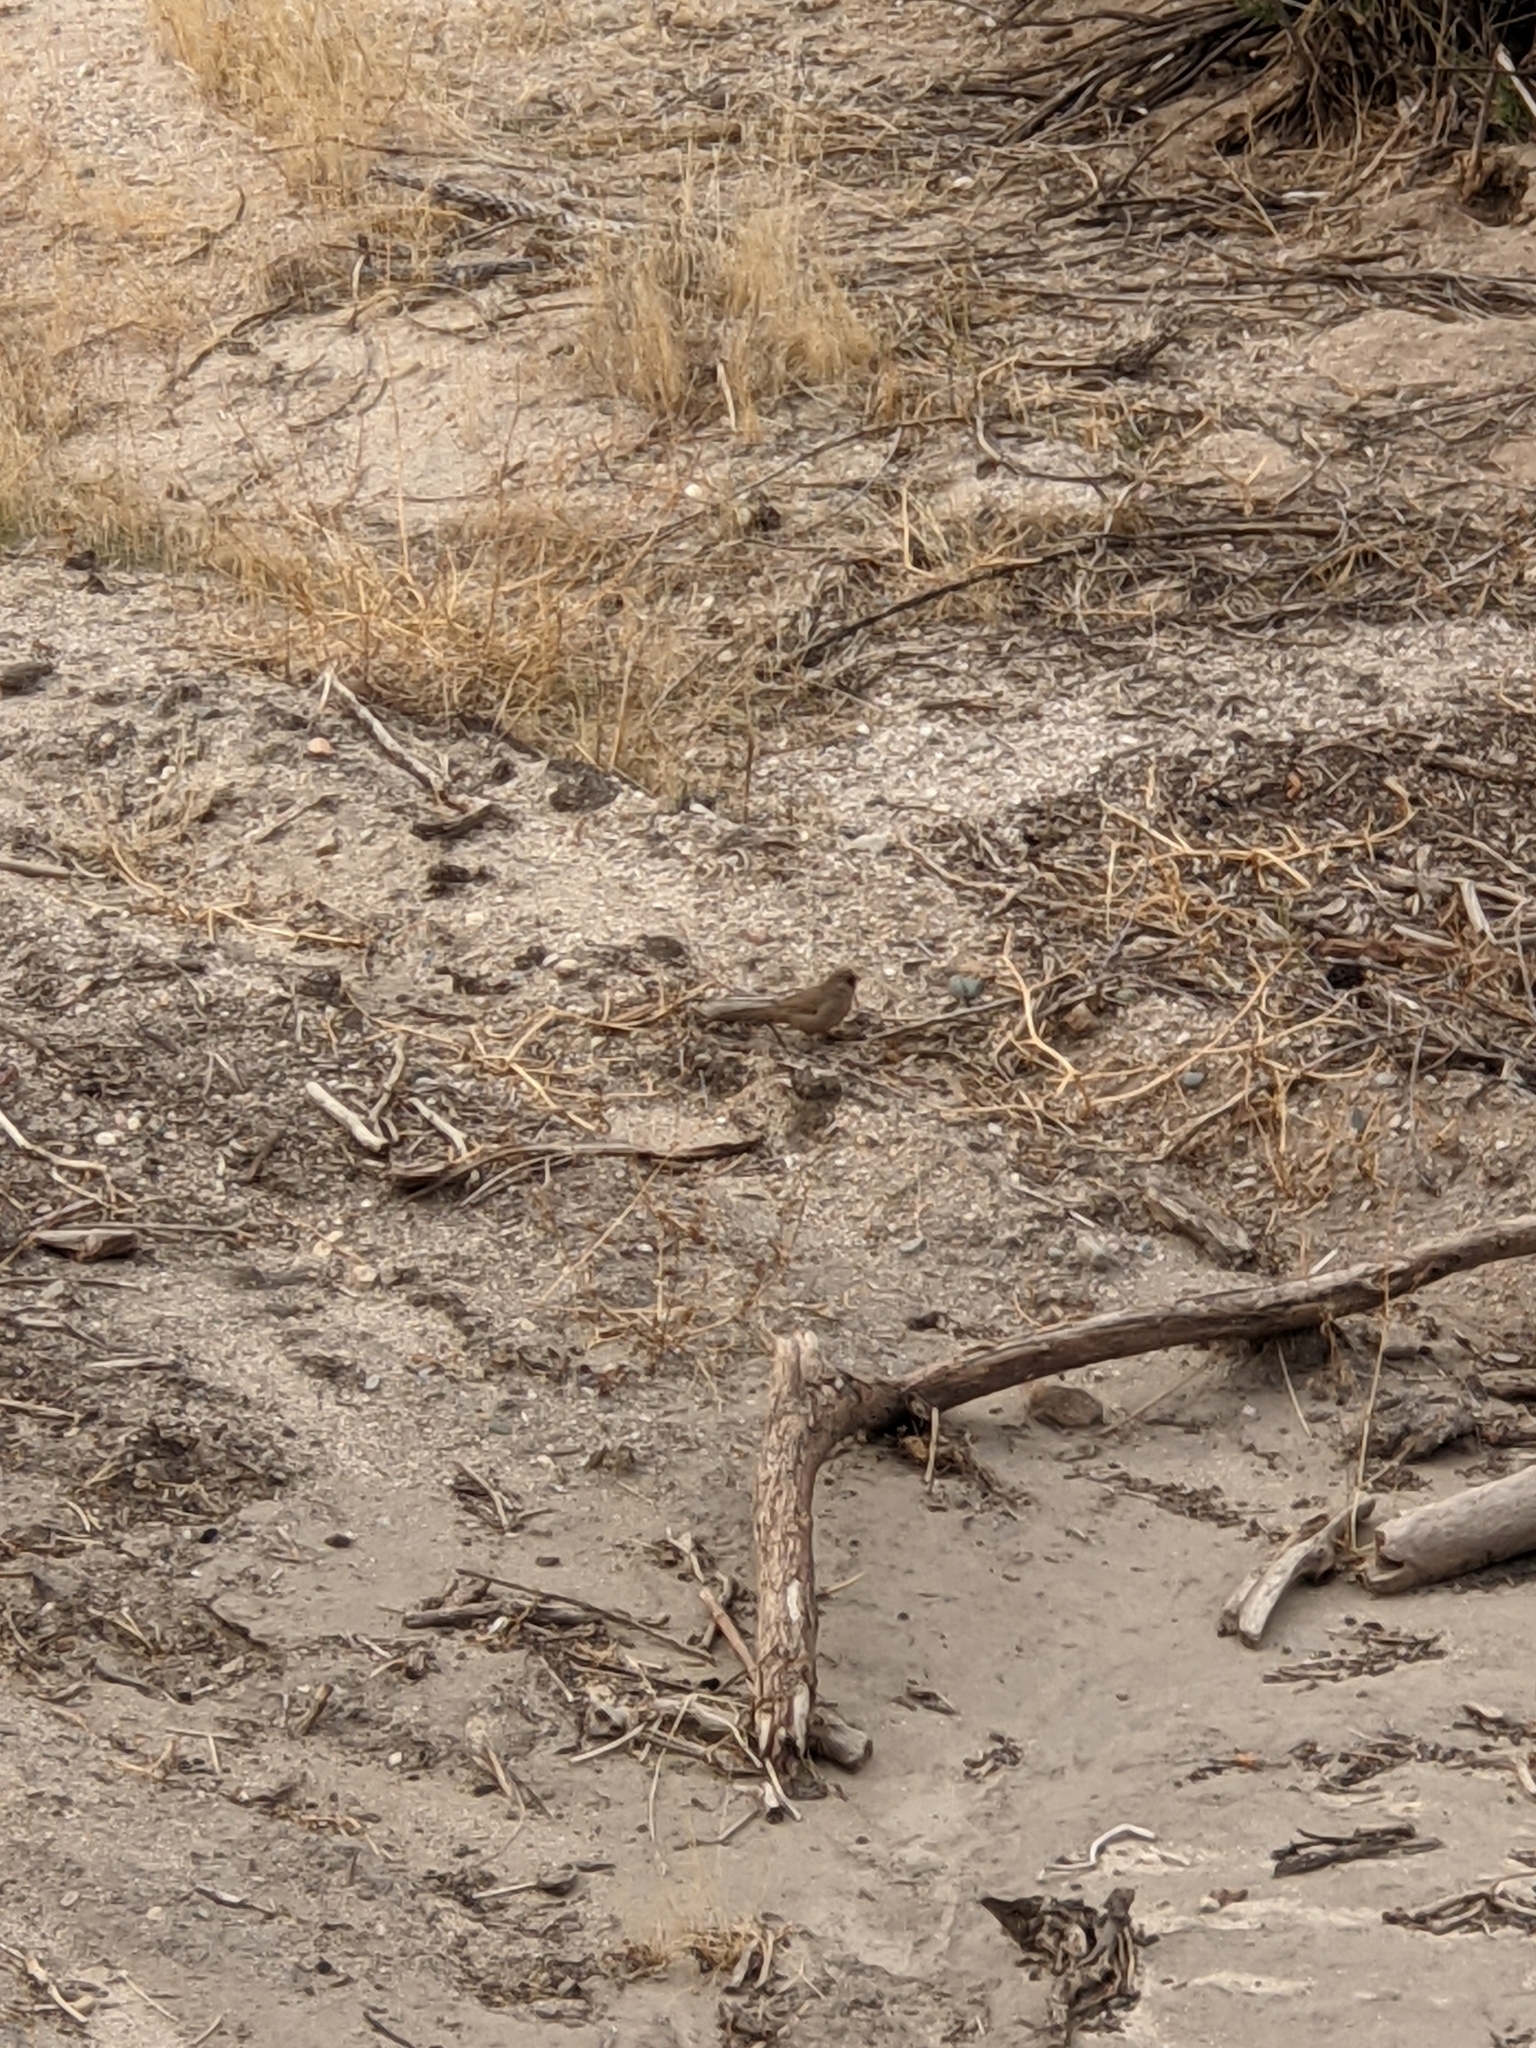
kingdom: Animalia
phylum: Chordata
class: Aves
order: Passeriformes
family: Passerellidae
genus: Melozone
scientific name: Melozone aberti
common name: Abert's towhee
